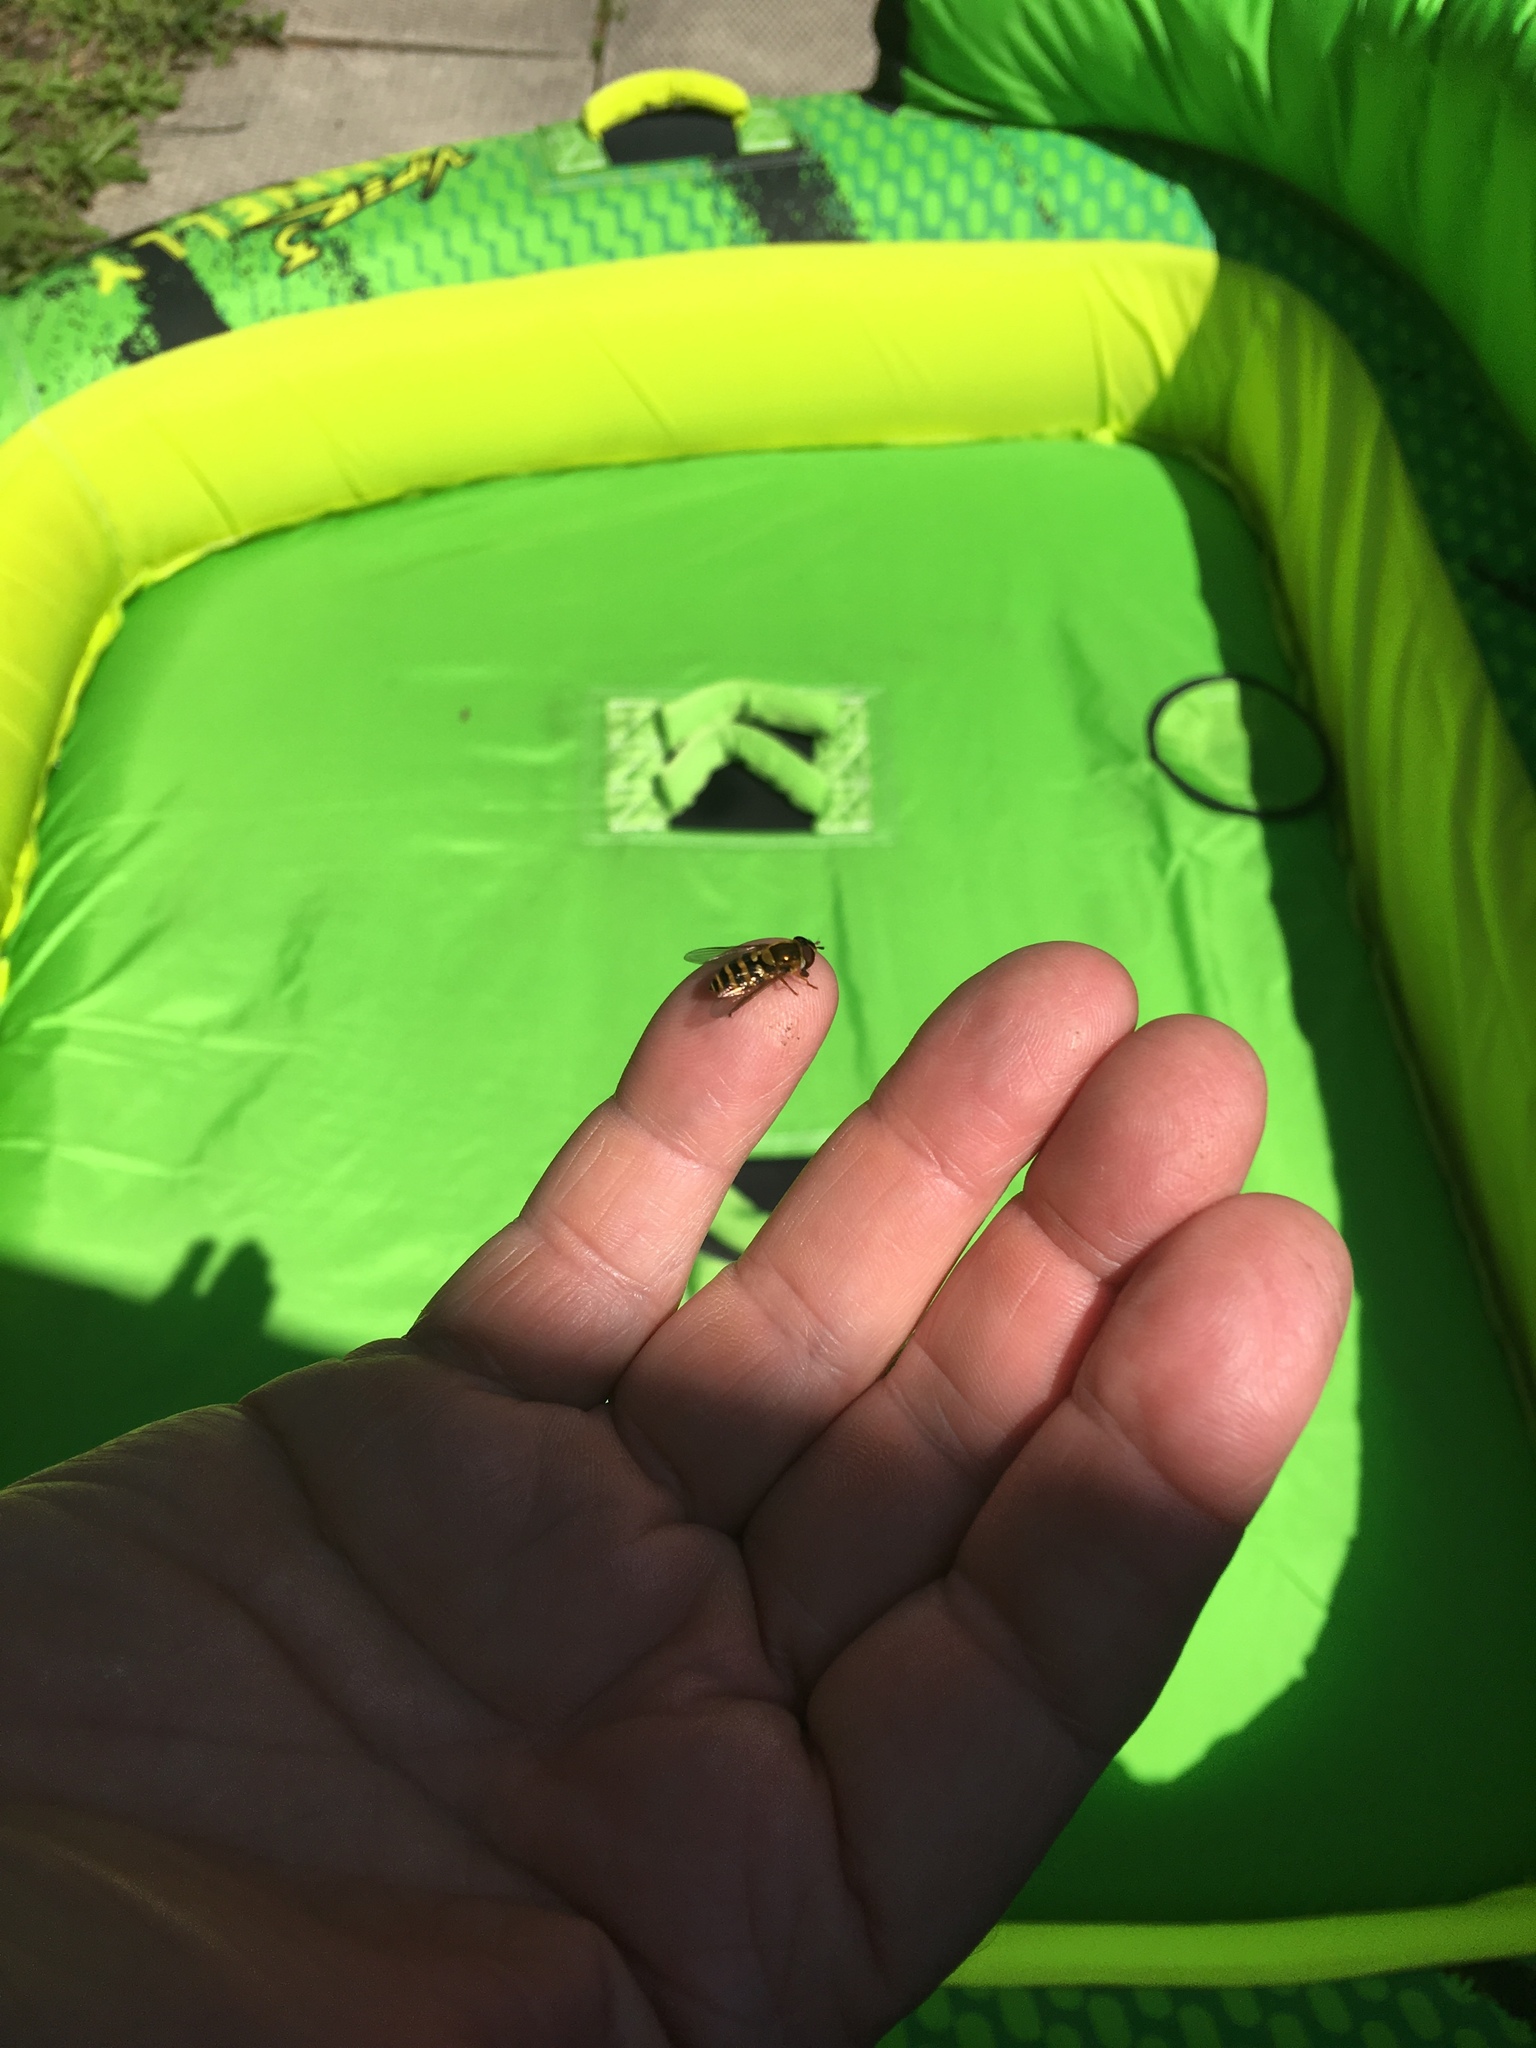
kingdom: Animalia
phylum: Arthropoda
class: Insecta
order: Diptera
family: Syrphidae
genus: Syrphus
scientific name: Syrphus
